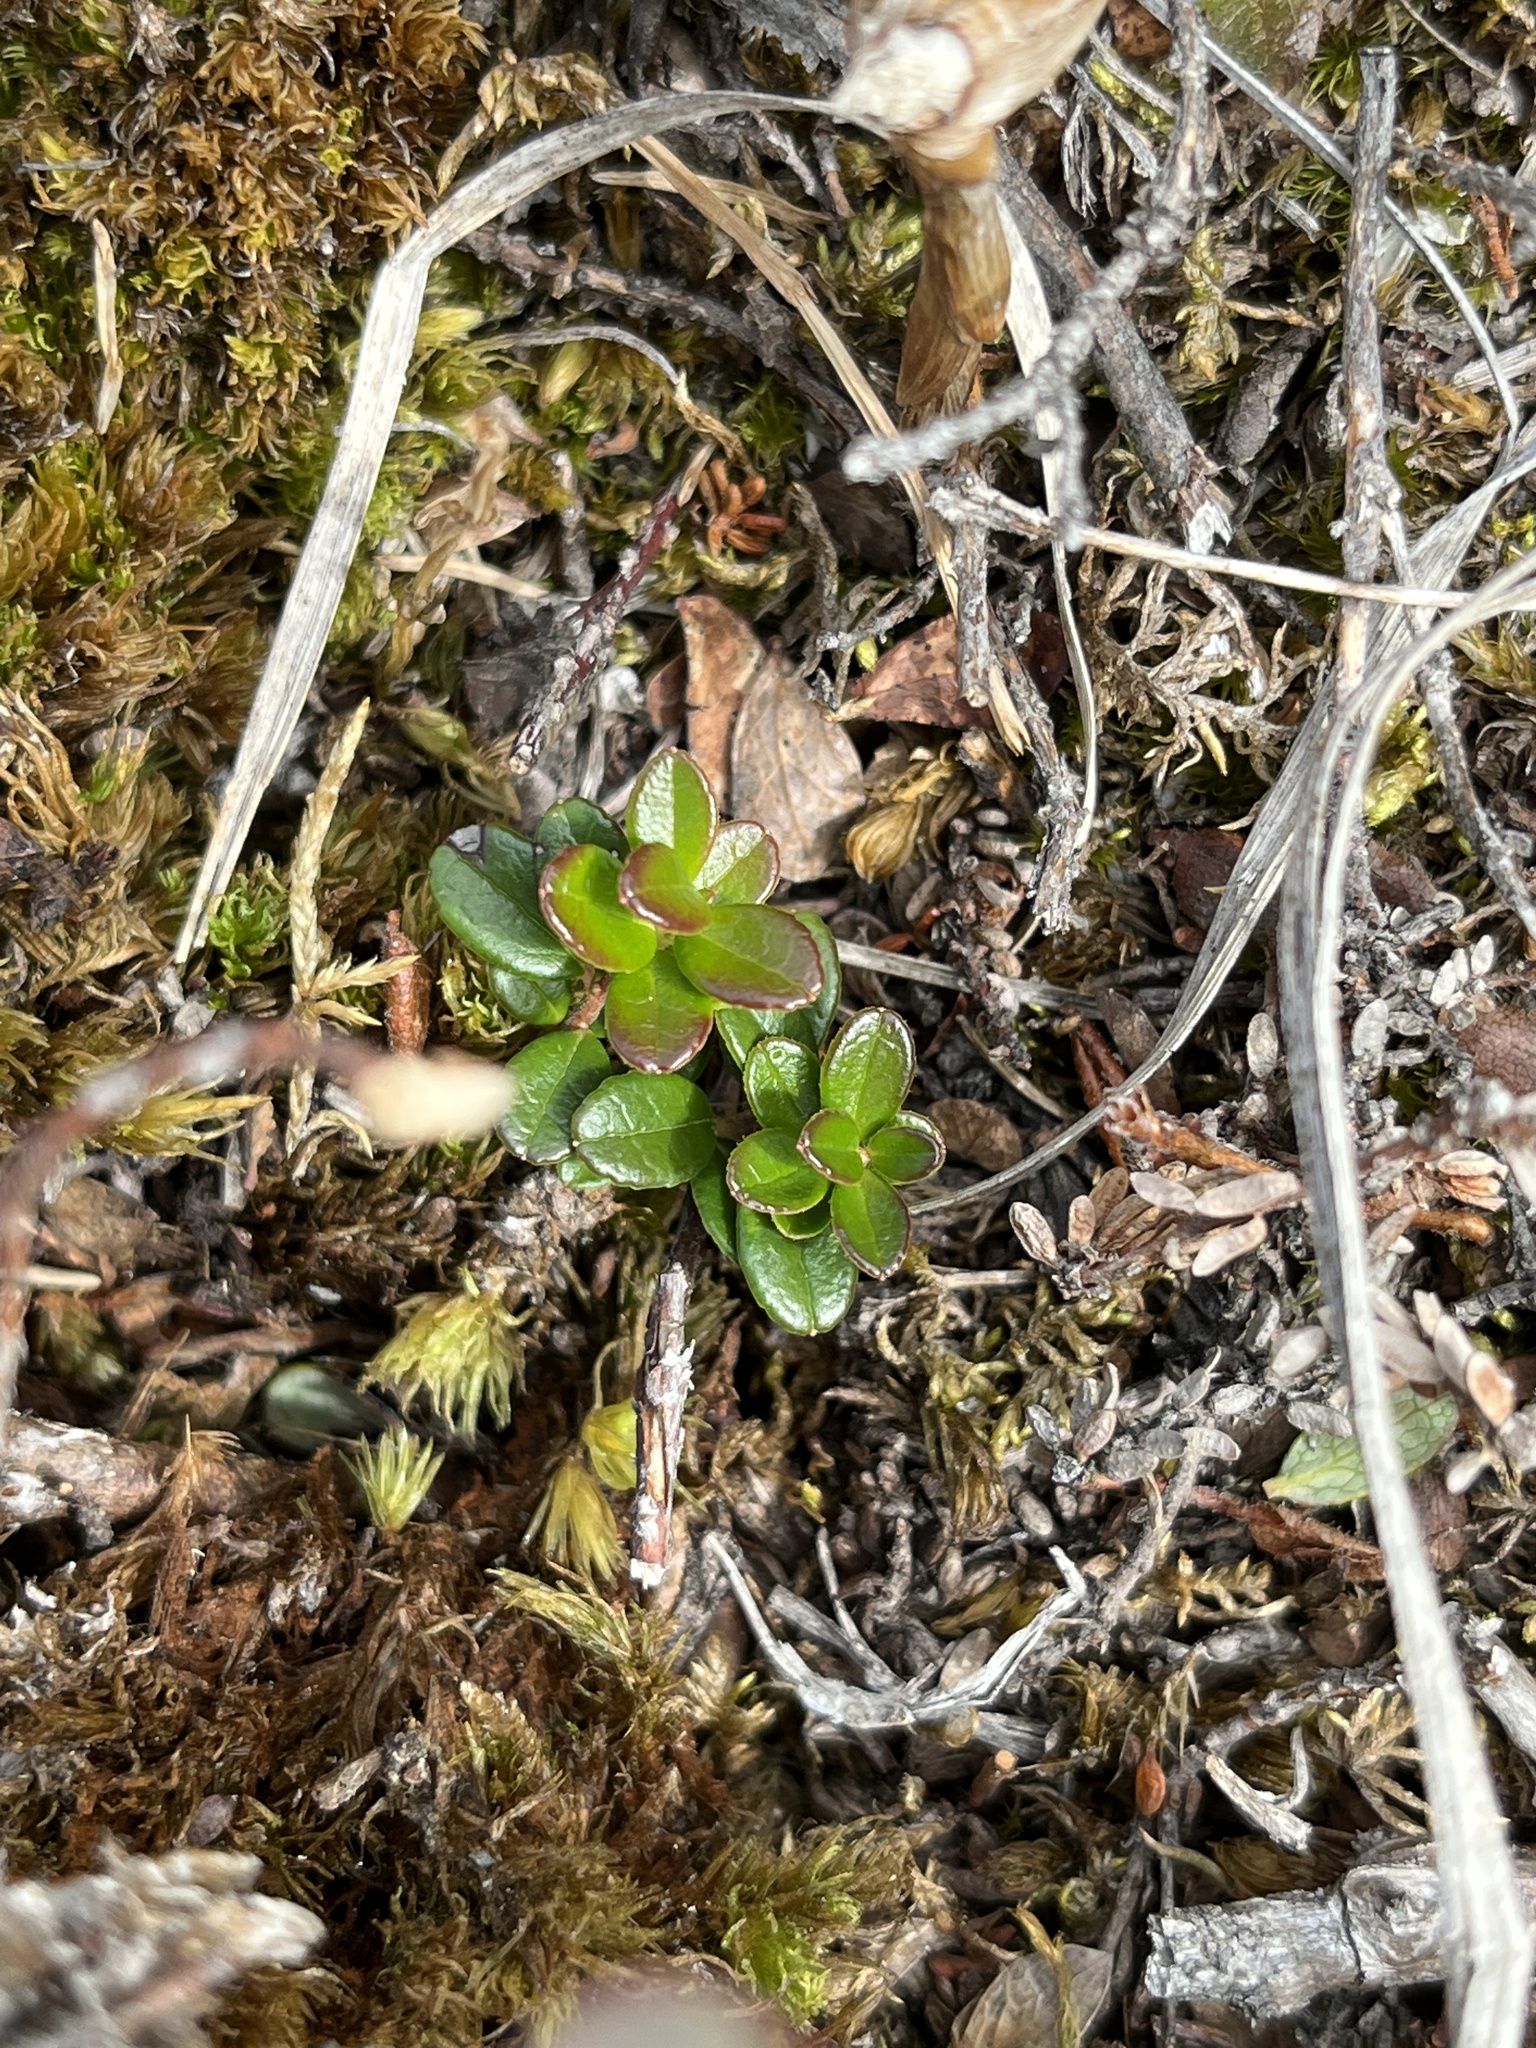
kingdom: Plantae
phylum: Tracheophyta
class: Magnoliopsida
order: Ericales
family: Ericaceae
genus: Vaccinium
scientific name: Vaccinium vitis-idaea
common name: Cowberry
